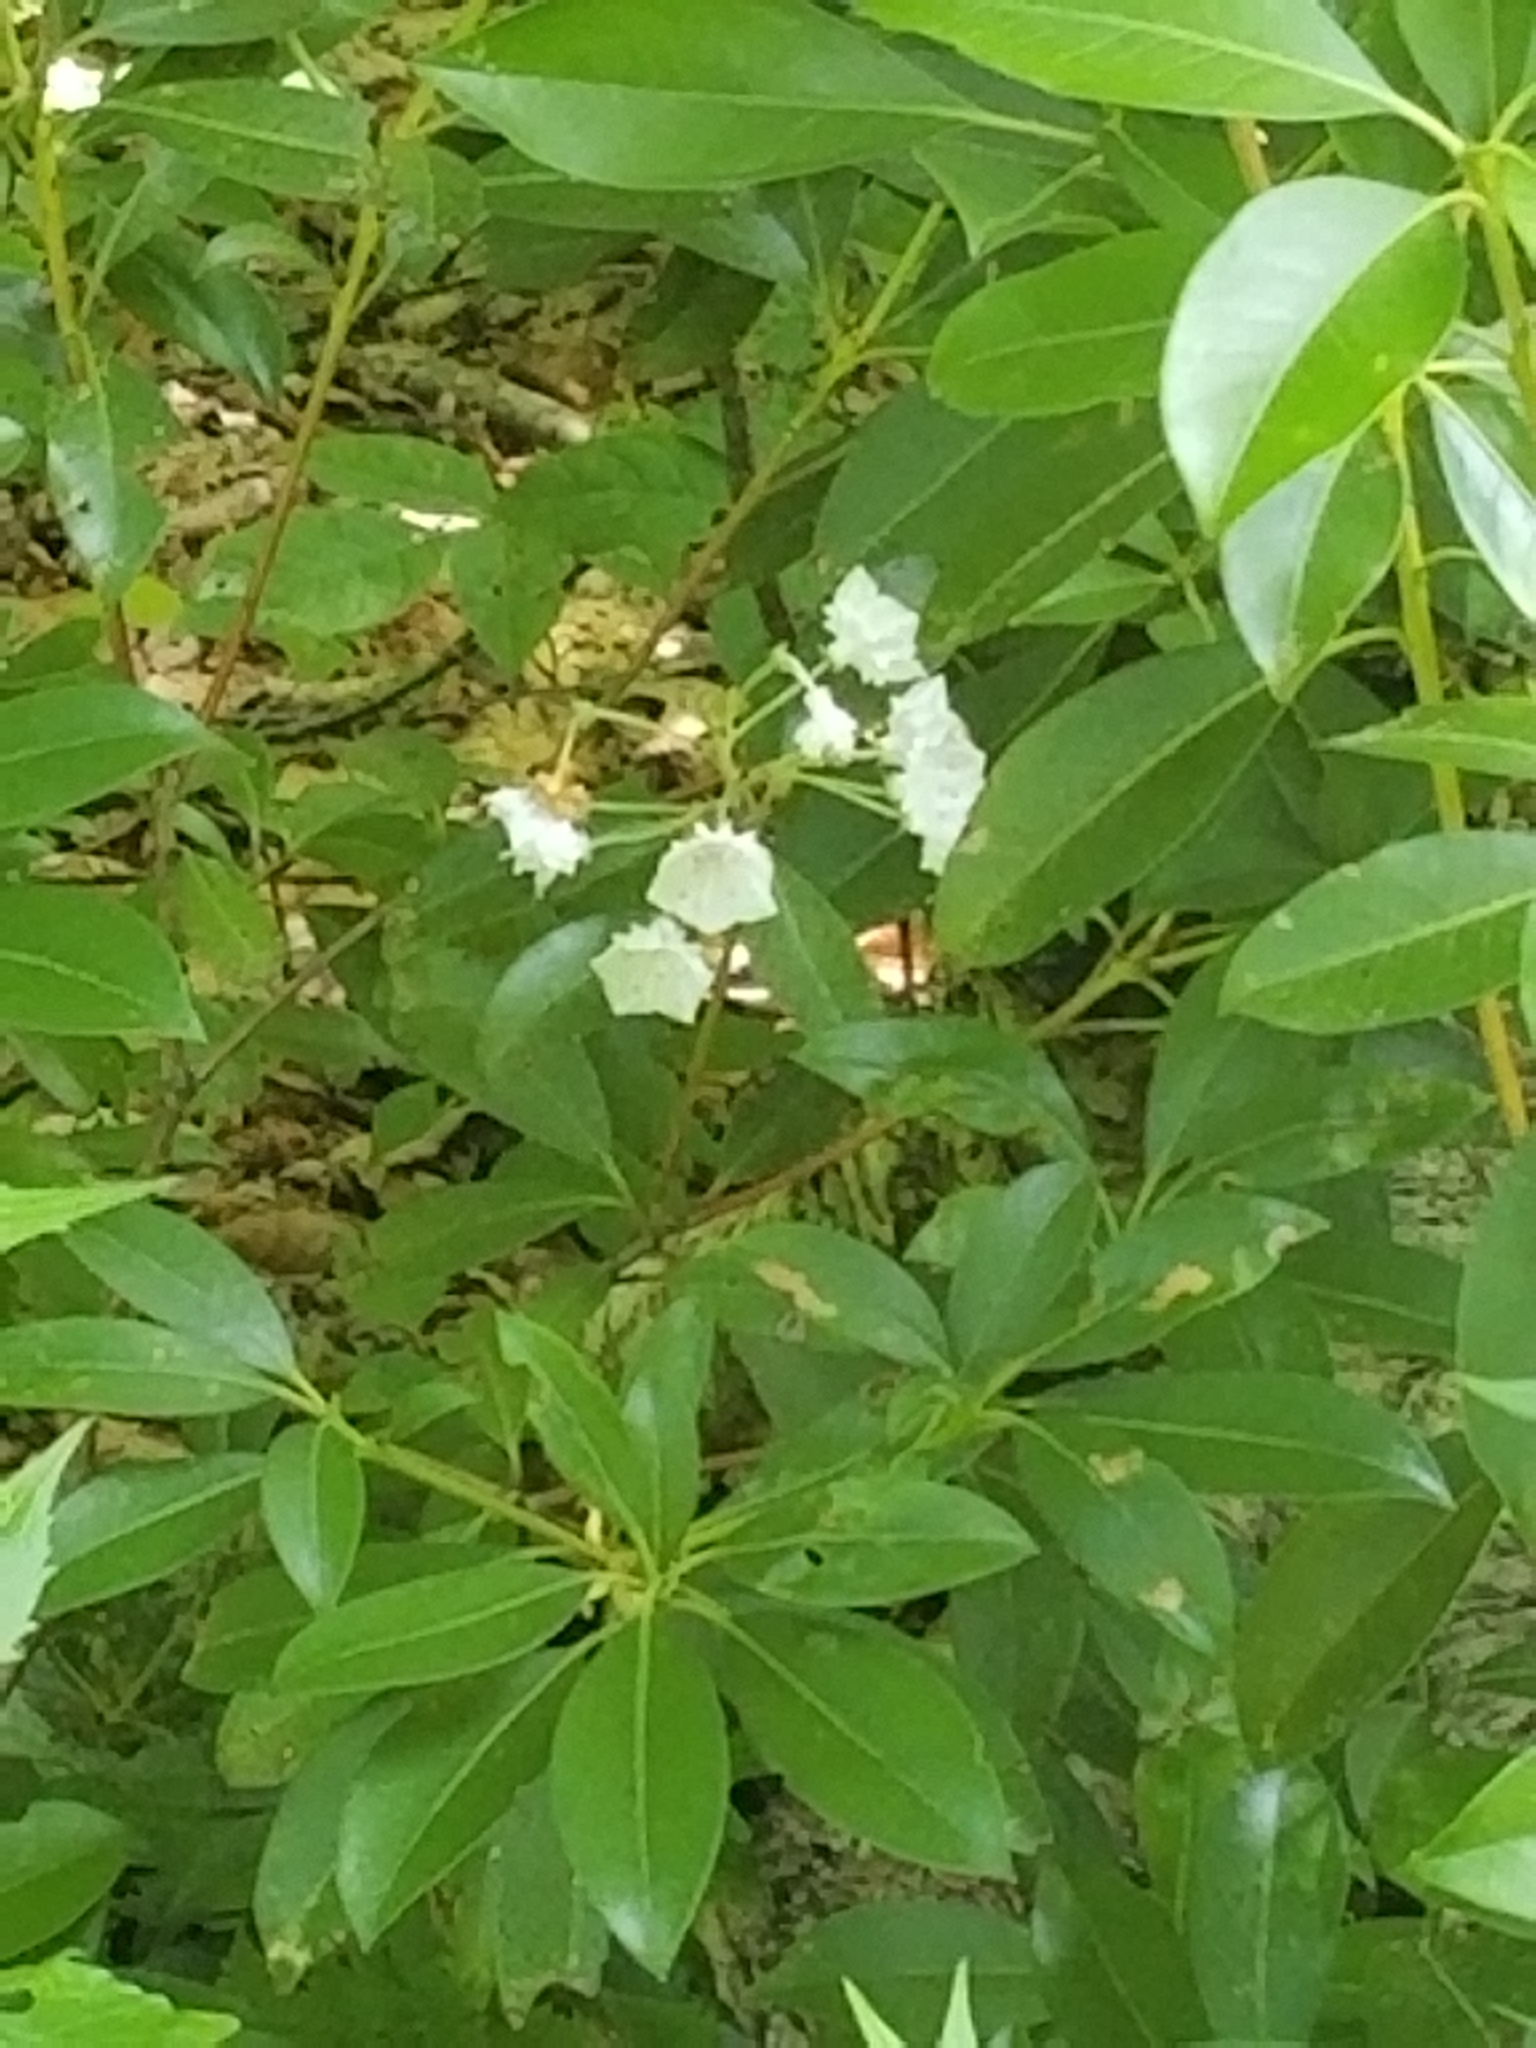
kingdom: Plantae
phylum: Tracheophyta
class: Magnoliopsida
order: Ericales
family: Ericaceae
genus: Kalmia
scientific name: Kalmia latifolia
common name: Mountain-laurel
